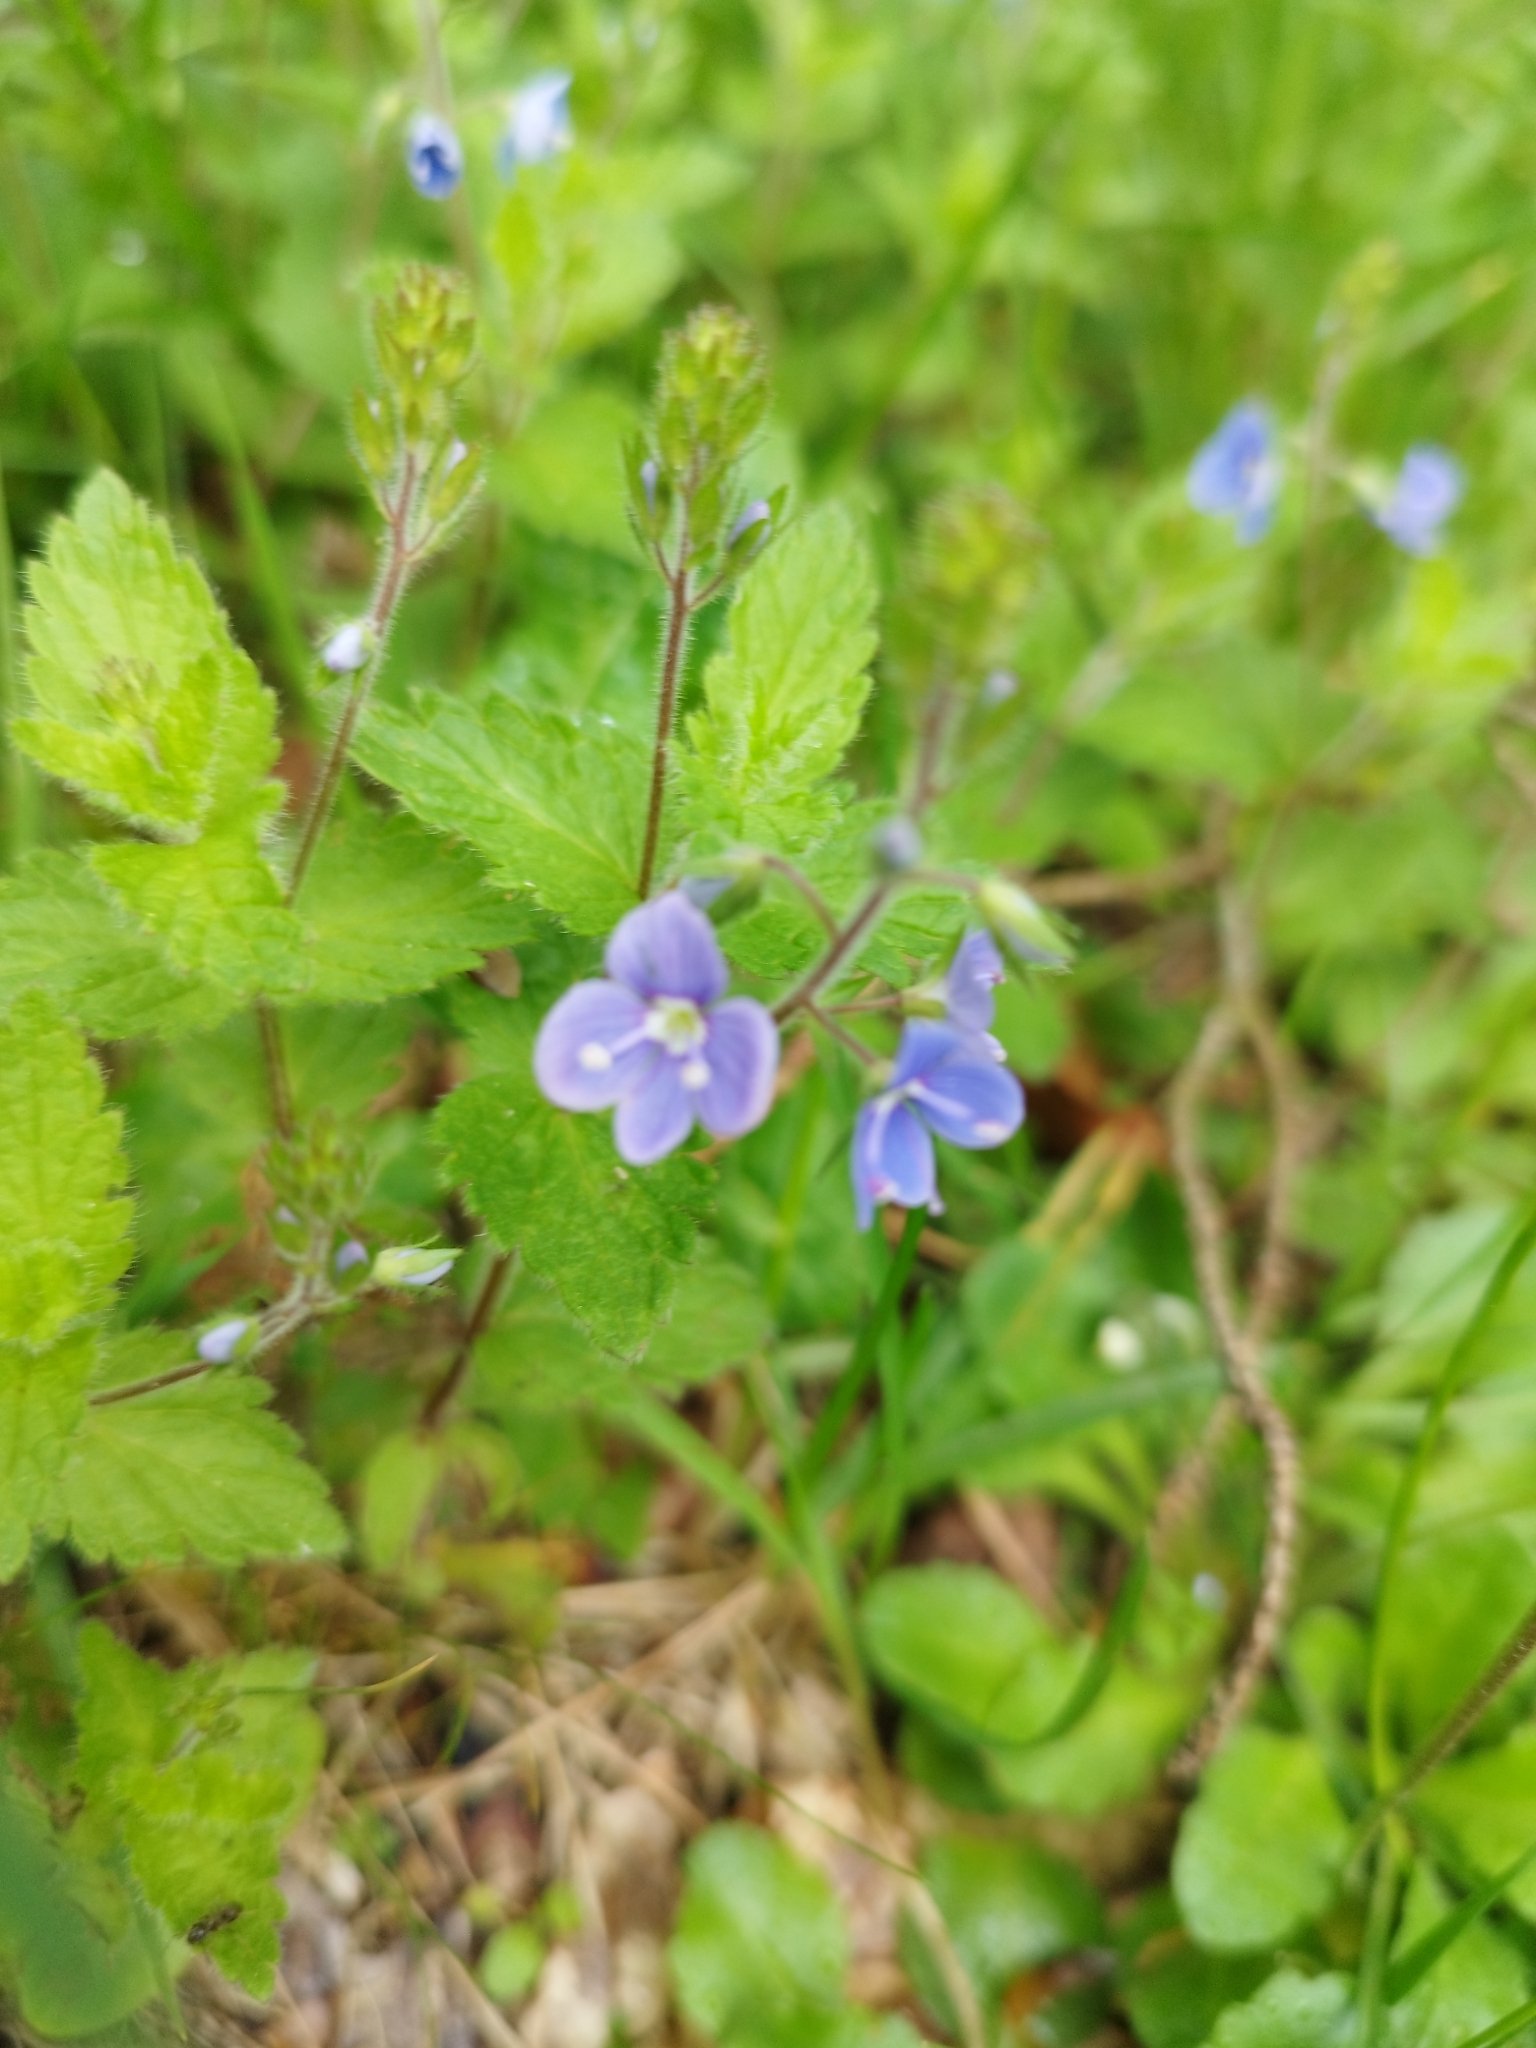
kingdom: Plantae
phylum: Tracheophyta
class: Magnoliopsida
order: Lamiales
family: Plantaginaceae
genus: Veronica
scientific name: Veronica chamaedrys
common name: Germander speedwell
